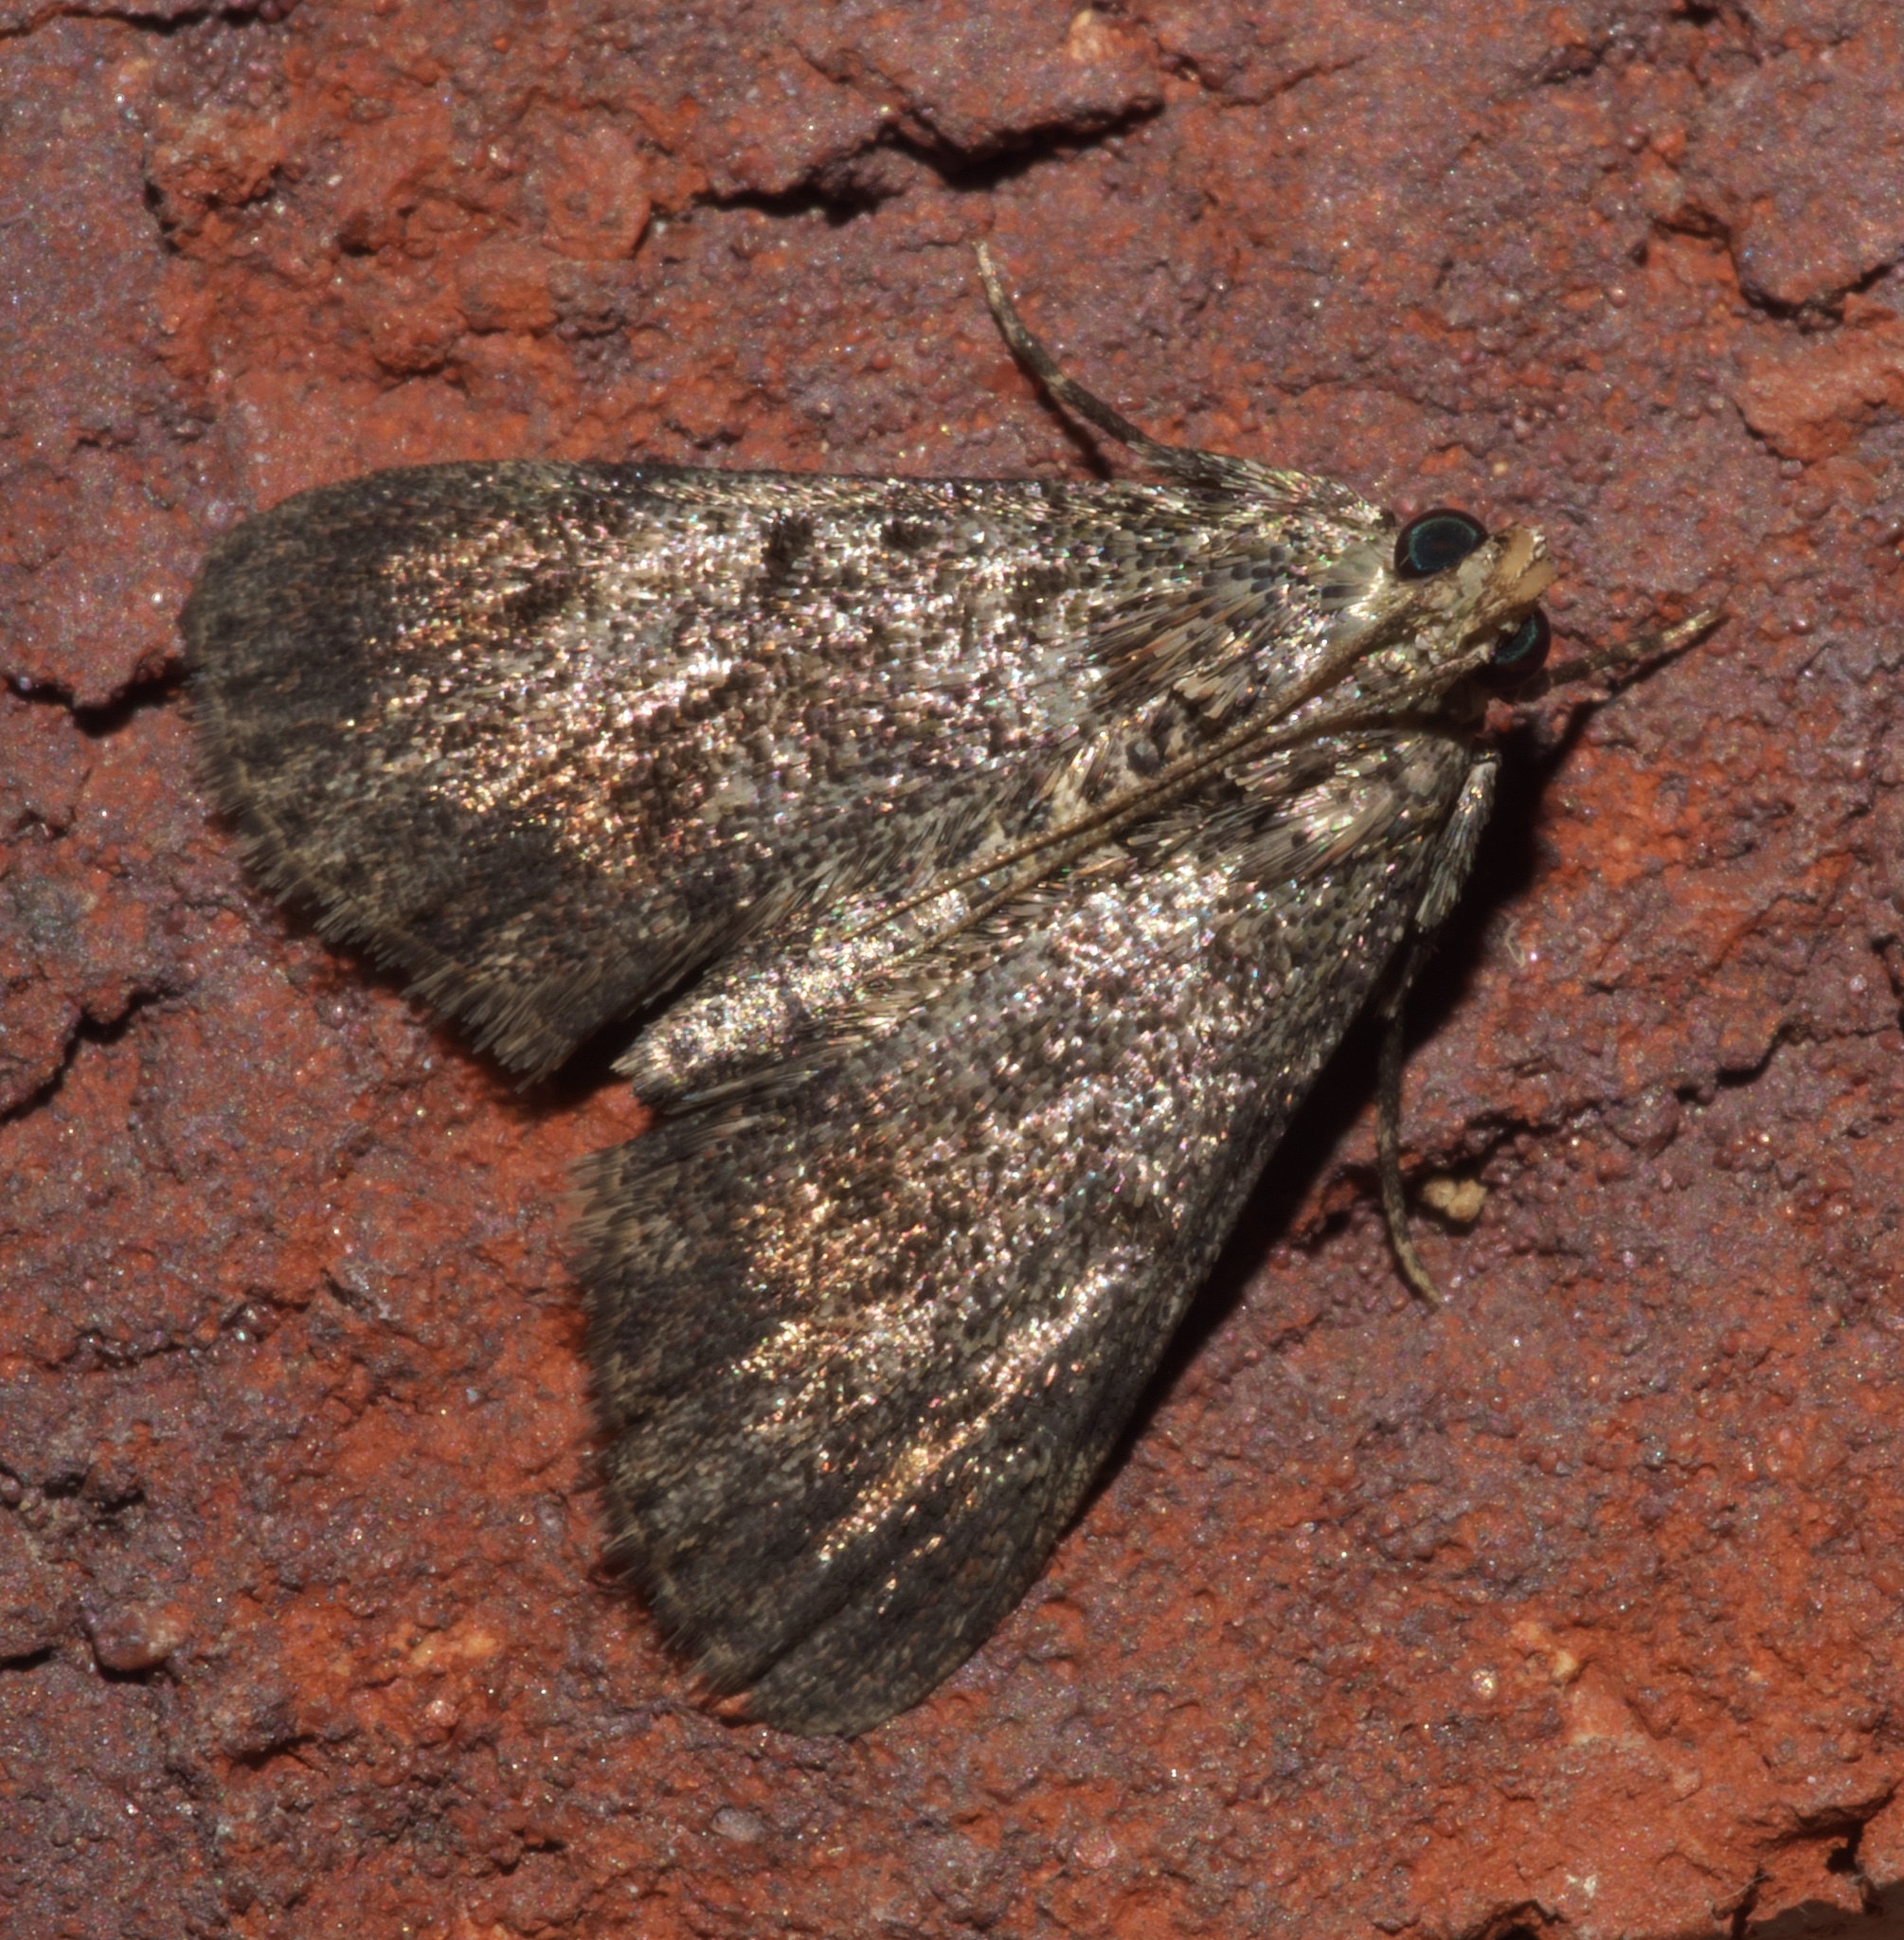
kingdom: Animalia
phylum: Arthropoda
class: Insecta
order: Lepidoptera
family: Pyralidae
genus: Epipaschia
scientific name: Epipaschia superatalis
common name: Dimorphic macalla moth
